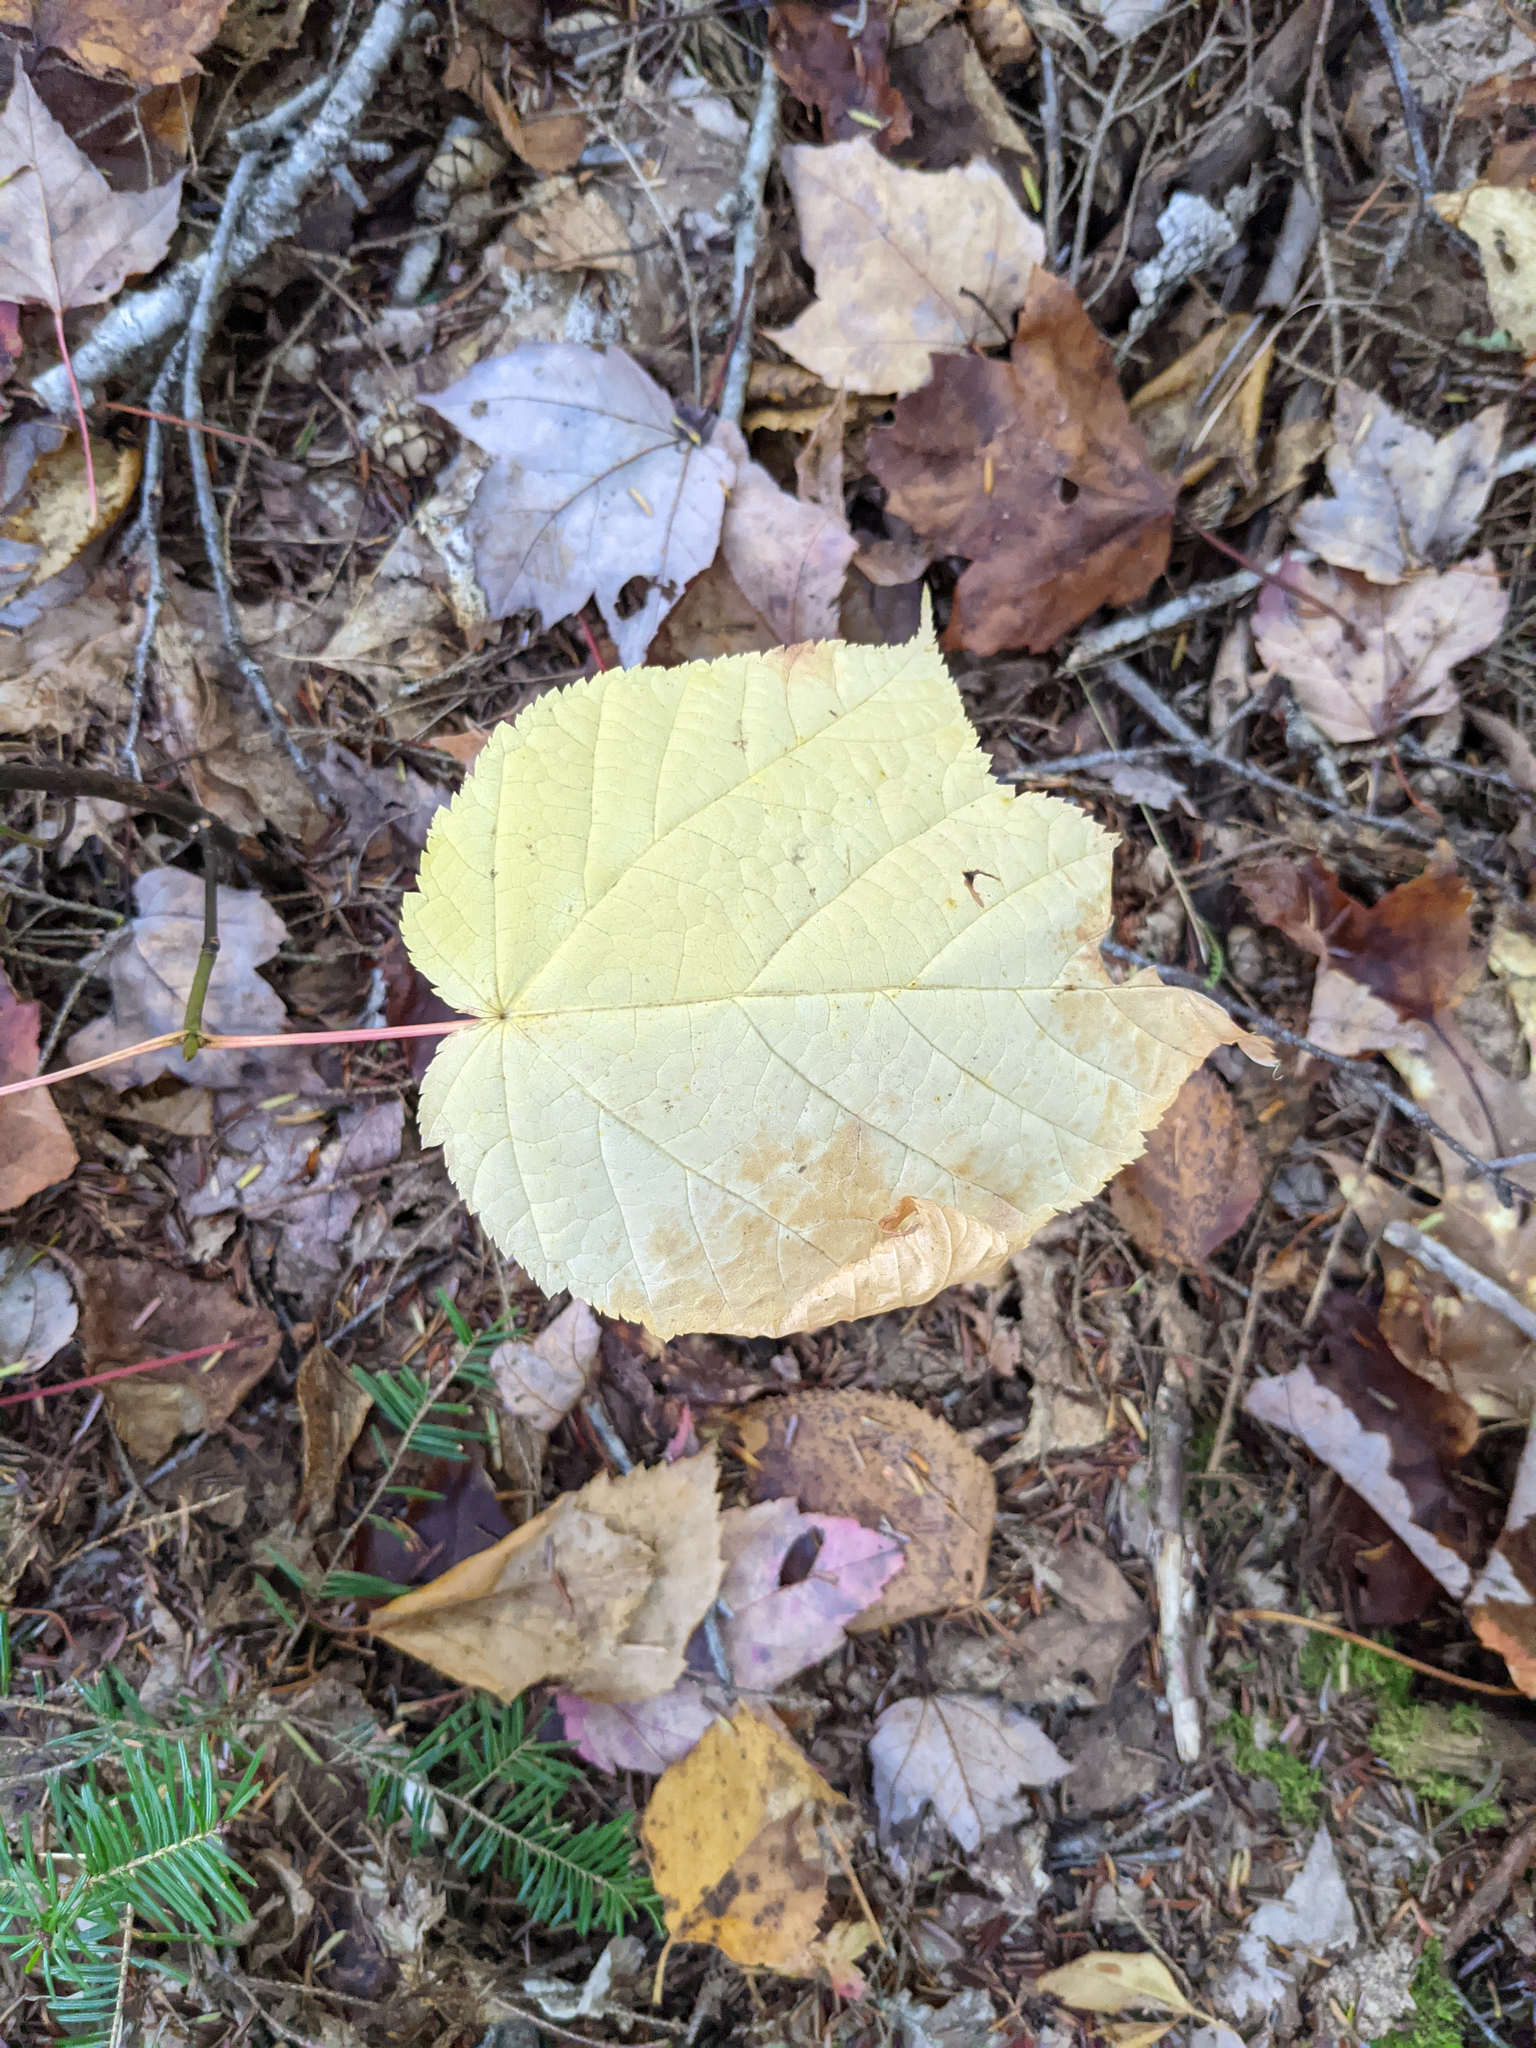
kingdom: Plantae
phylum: Tracheophyta
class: Magnoliopsida
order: Sapindales
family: Sapindaceae
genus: Acer
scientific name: Acer pensylvanicum
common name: Moosewood
